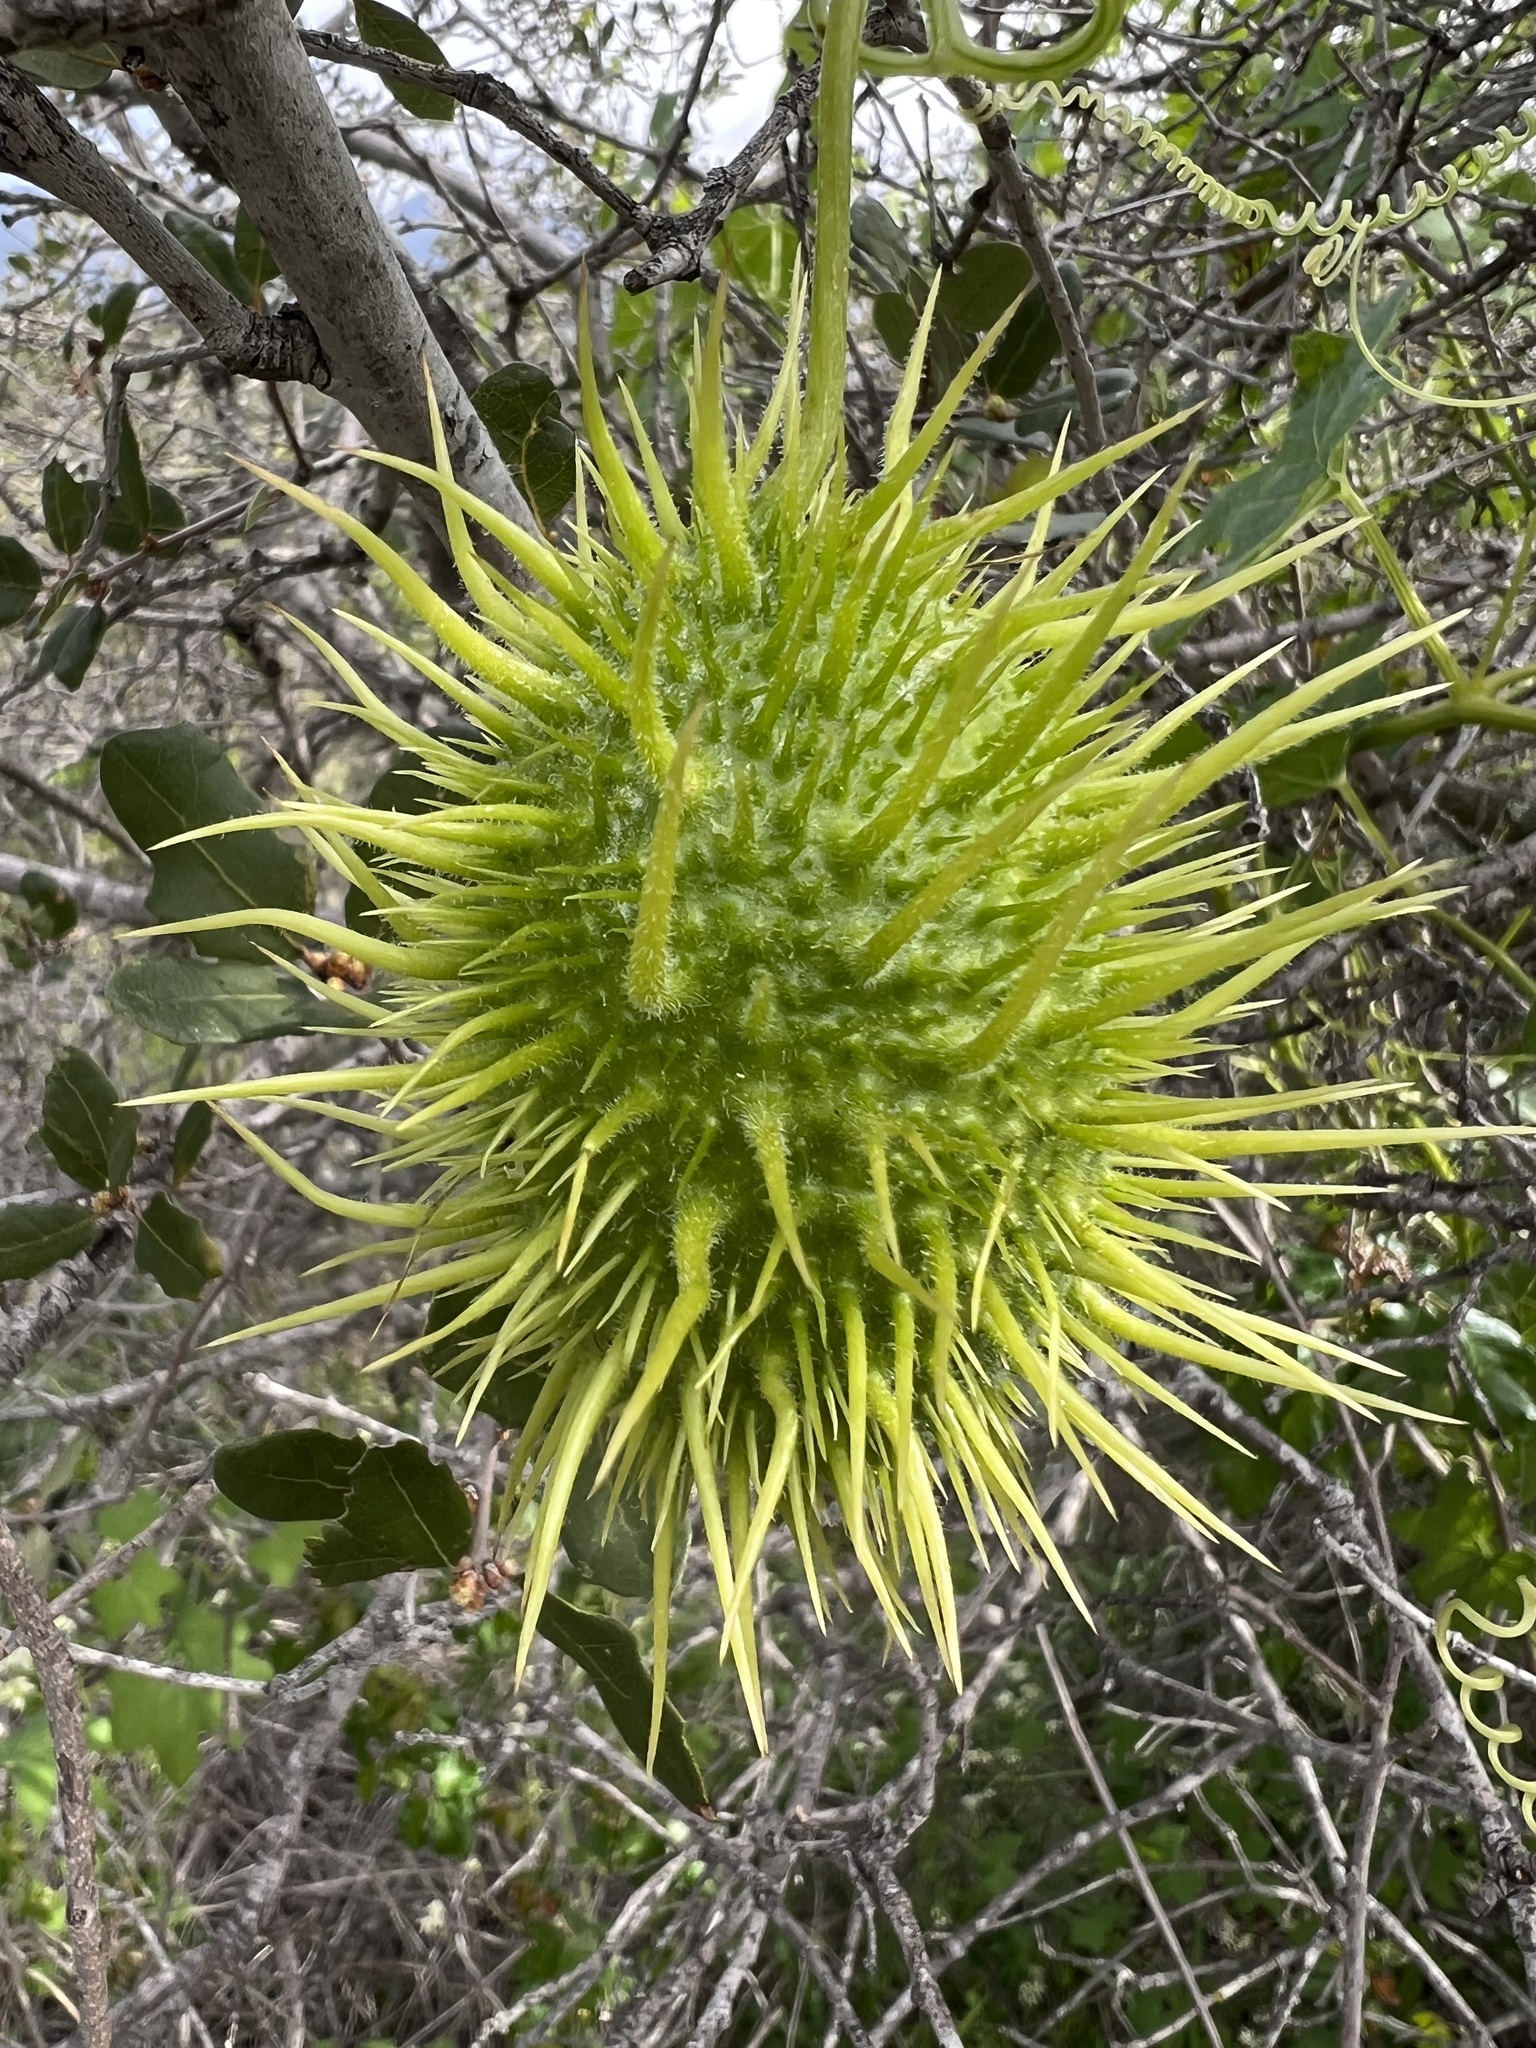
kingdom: Plantae
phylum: Tracheophyta
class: Magnoliopsida
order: Cucurbitales
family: Cucurbitaceae
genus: Marah
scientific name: Marah macrocarpa
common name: Cucamonga manroot
